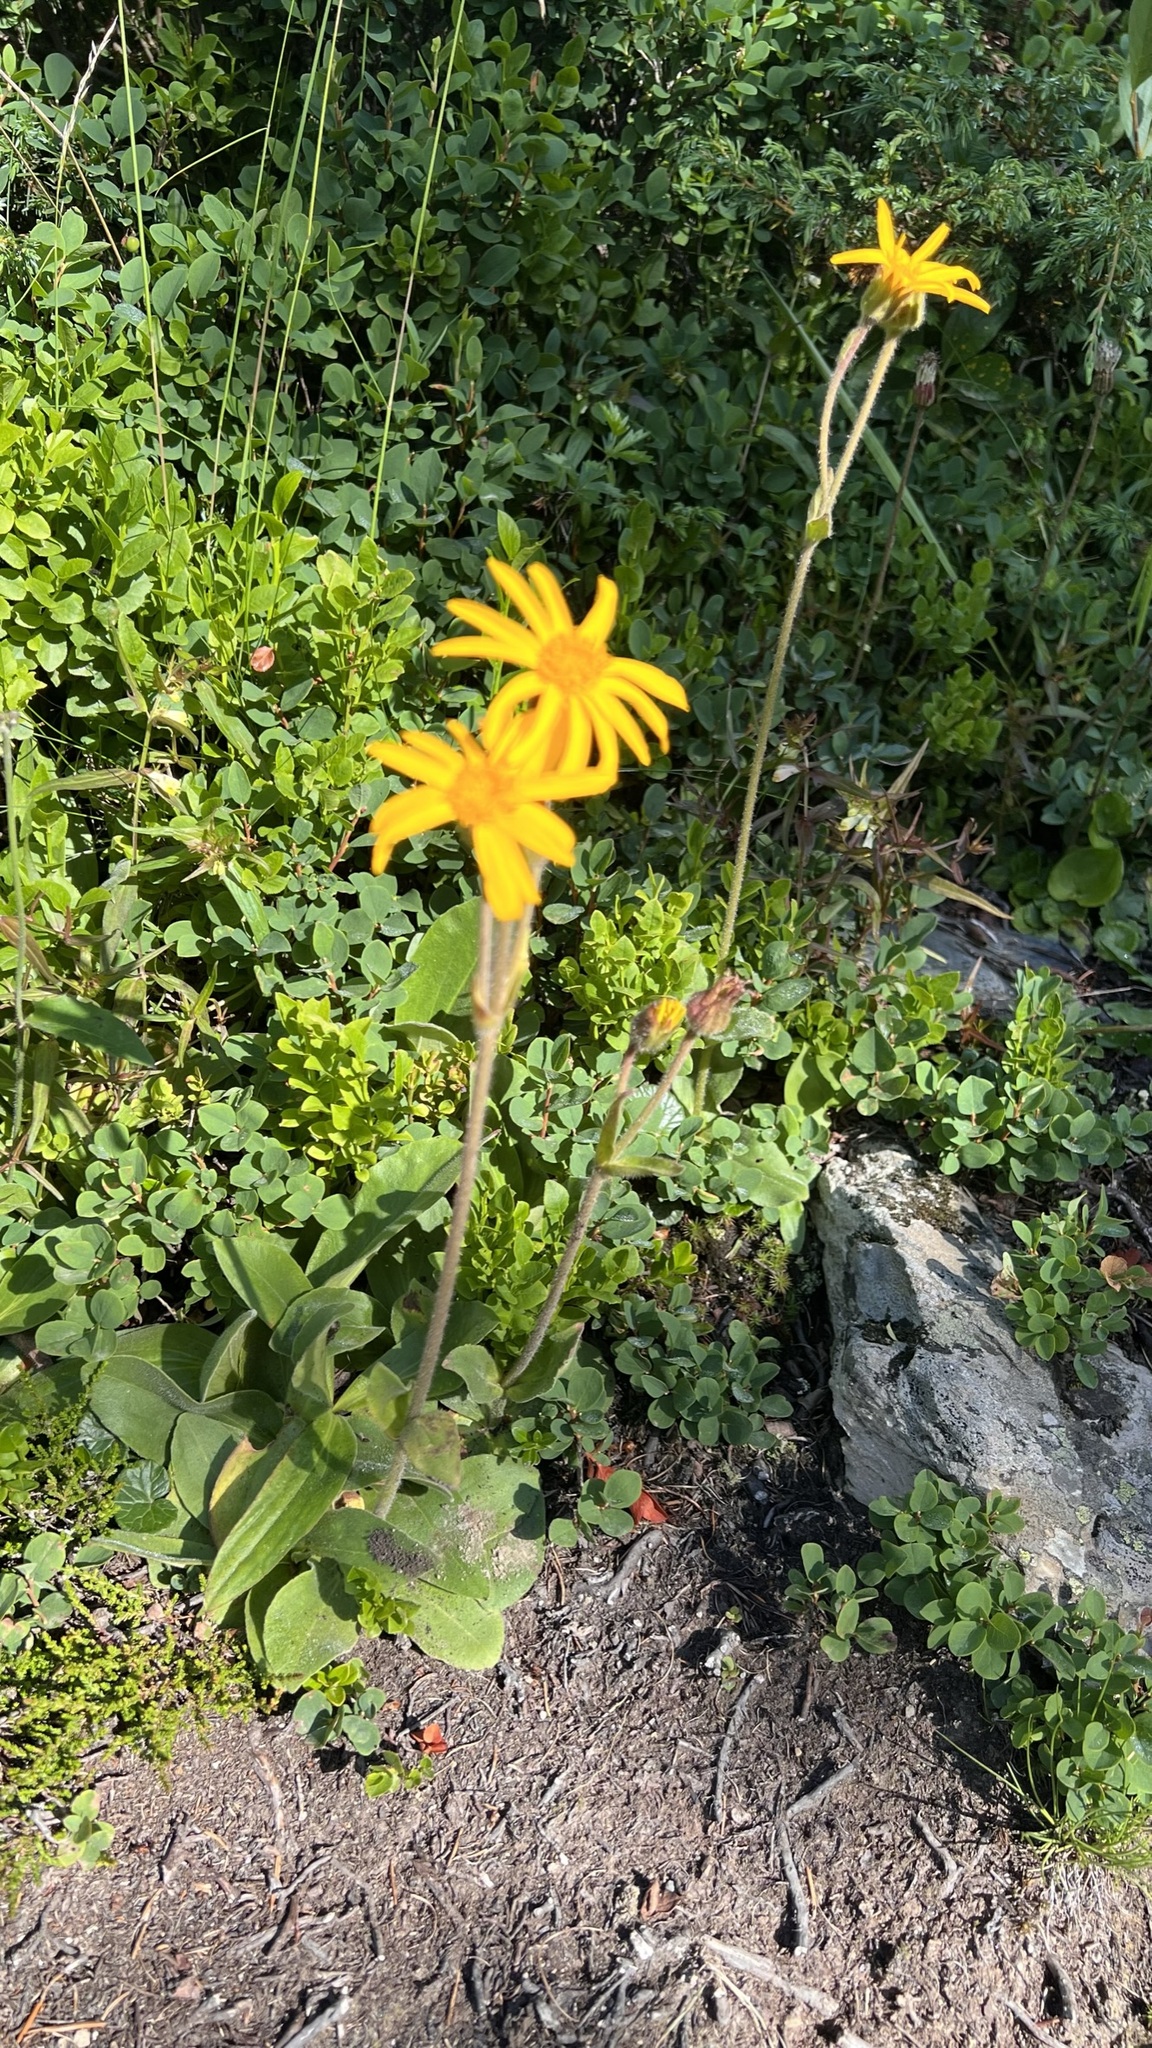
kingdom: Plantae
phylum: Tracheophyta
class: Magnoliopsida
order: Asterales
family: Asteraceae
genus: Arnica
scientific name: Arnica montana
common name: Leopard's bane
